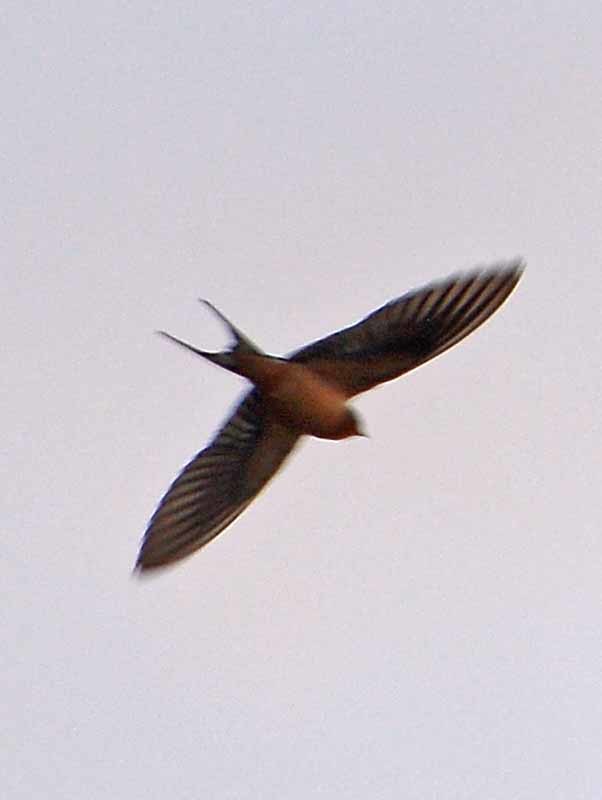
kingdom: Animalia
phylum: Chordata
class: Aves
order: Passeriformes
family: Hirundinidae
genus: Hirundo
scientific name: Hirundo rustica
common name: Barn swallow
